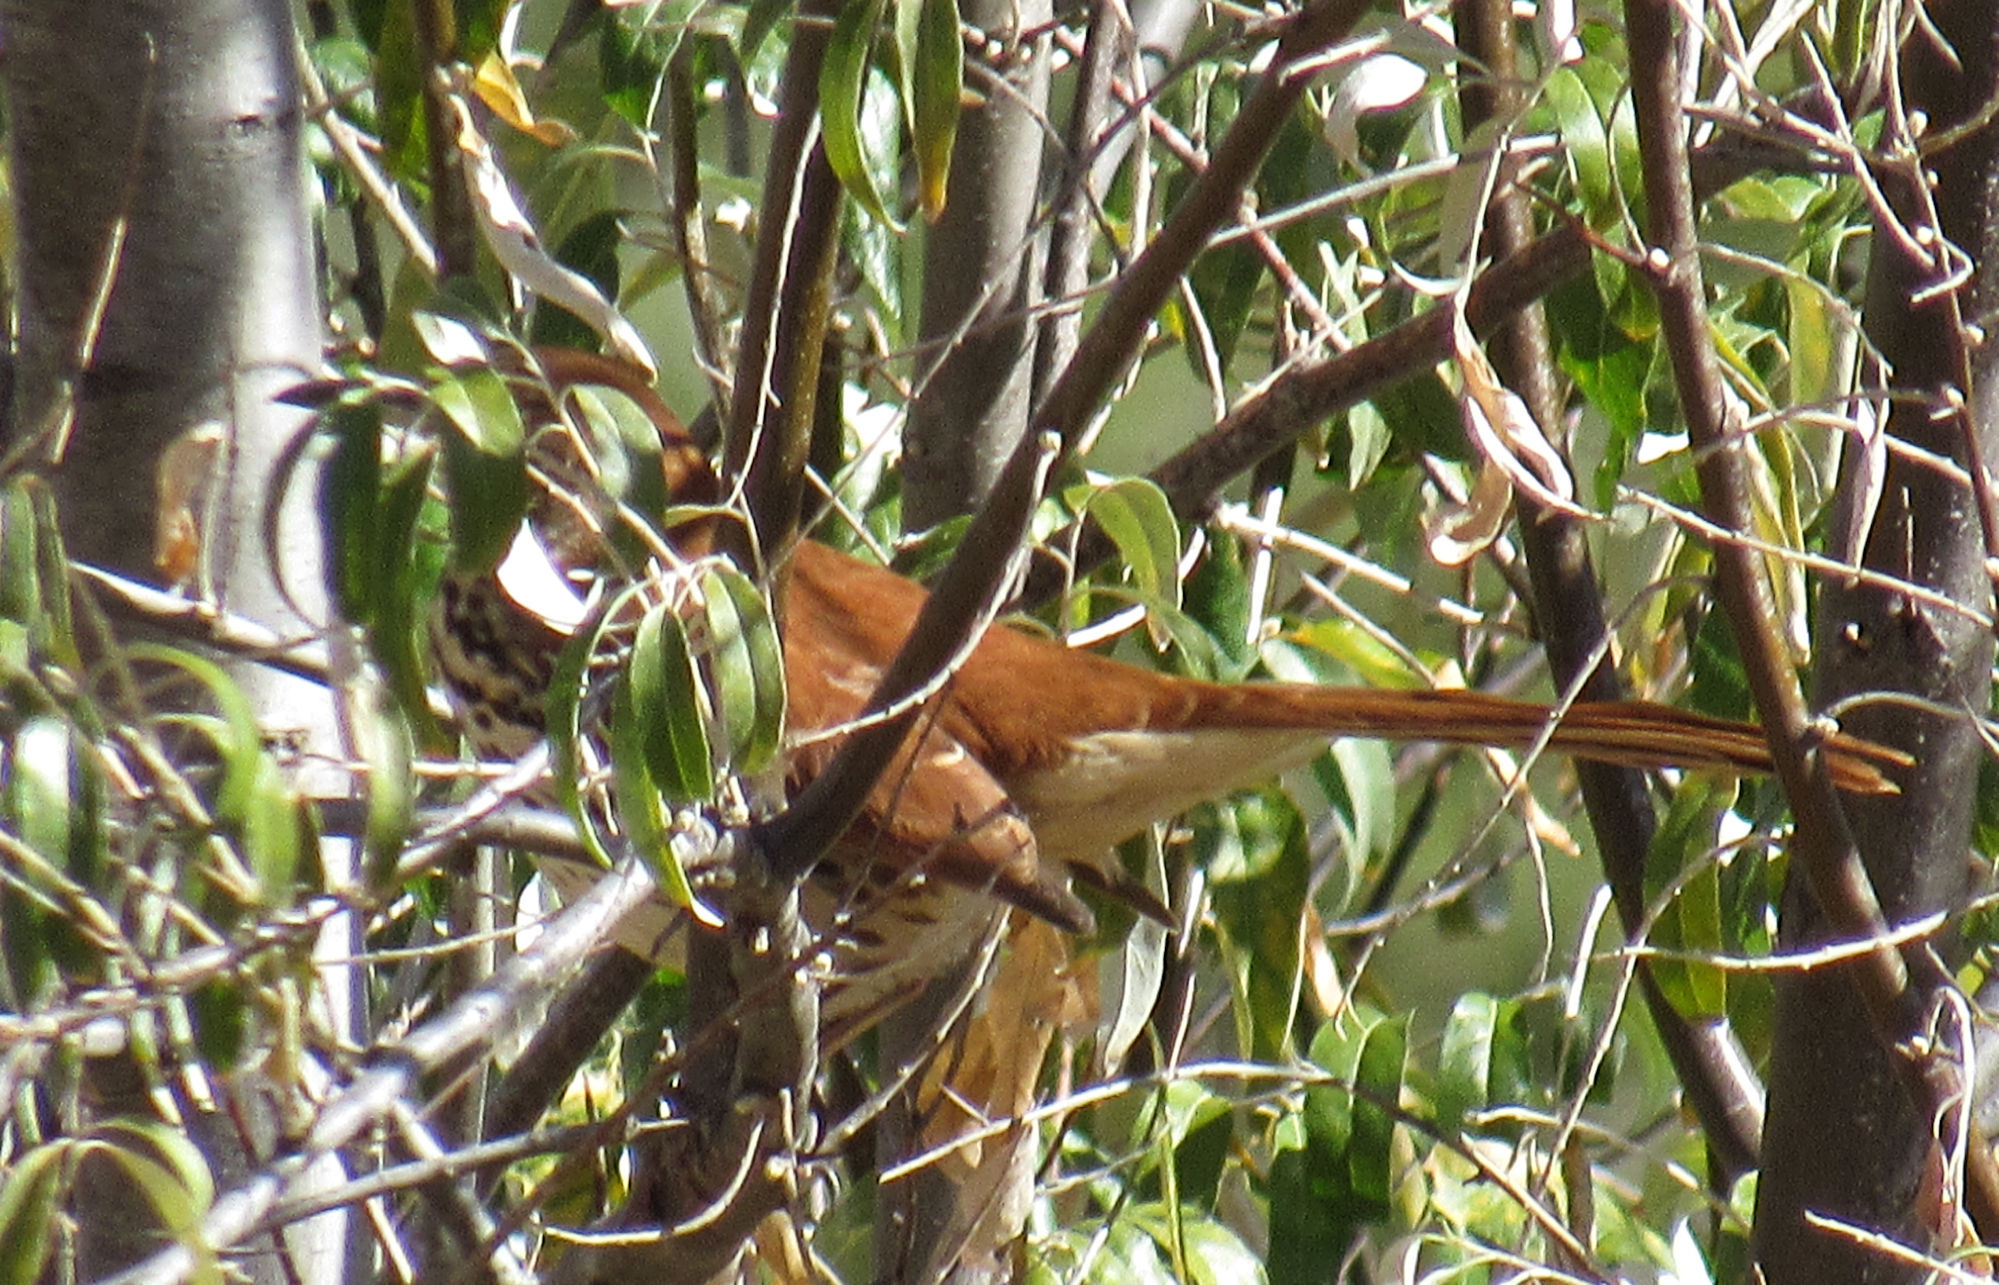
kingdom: Animalia
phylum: Chordata
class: Aves
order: Passeriformes
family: Mimidae
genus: Toxostoma
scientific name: Toxostoma rufum
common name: Brown thrasher
